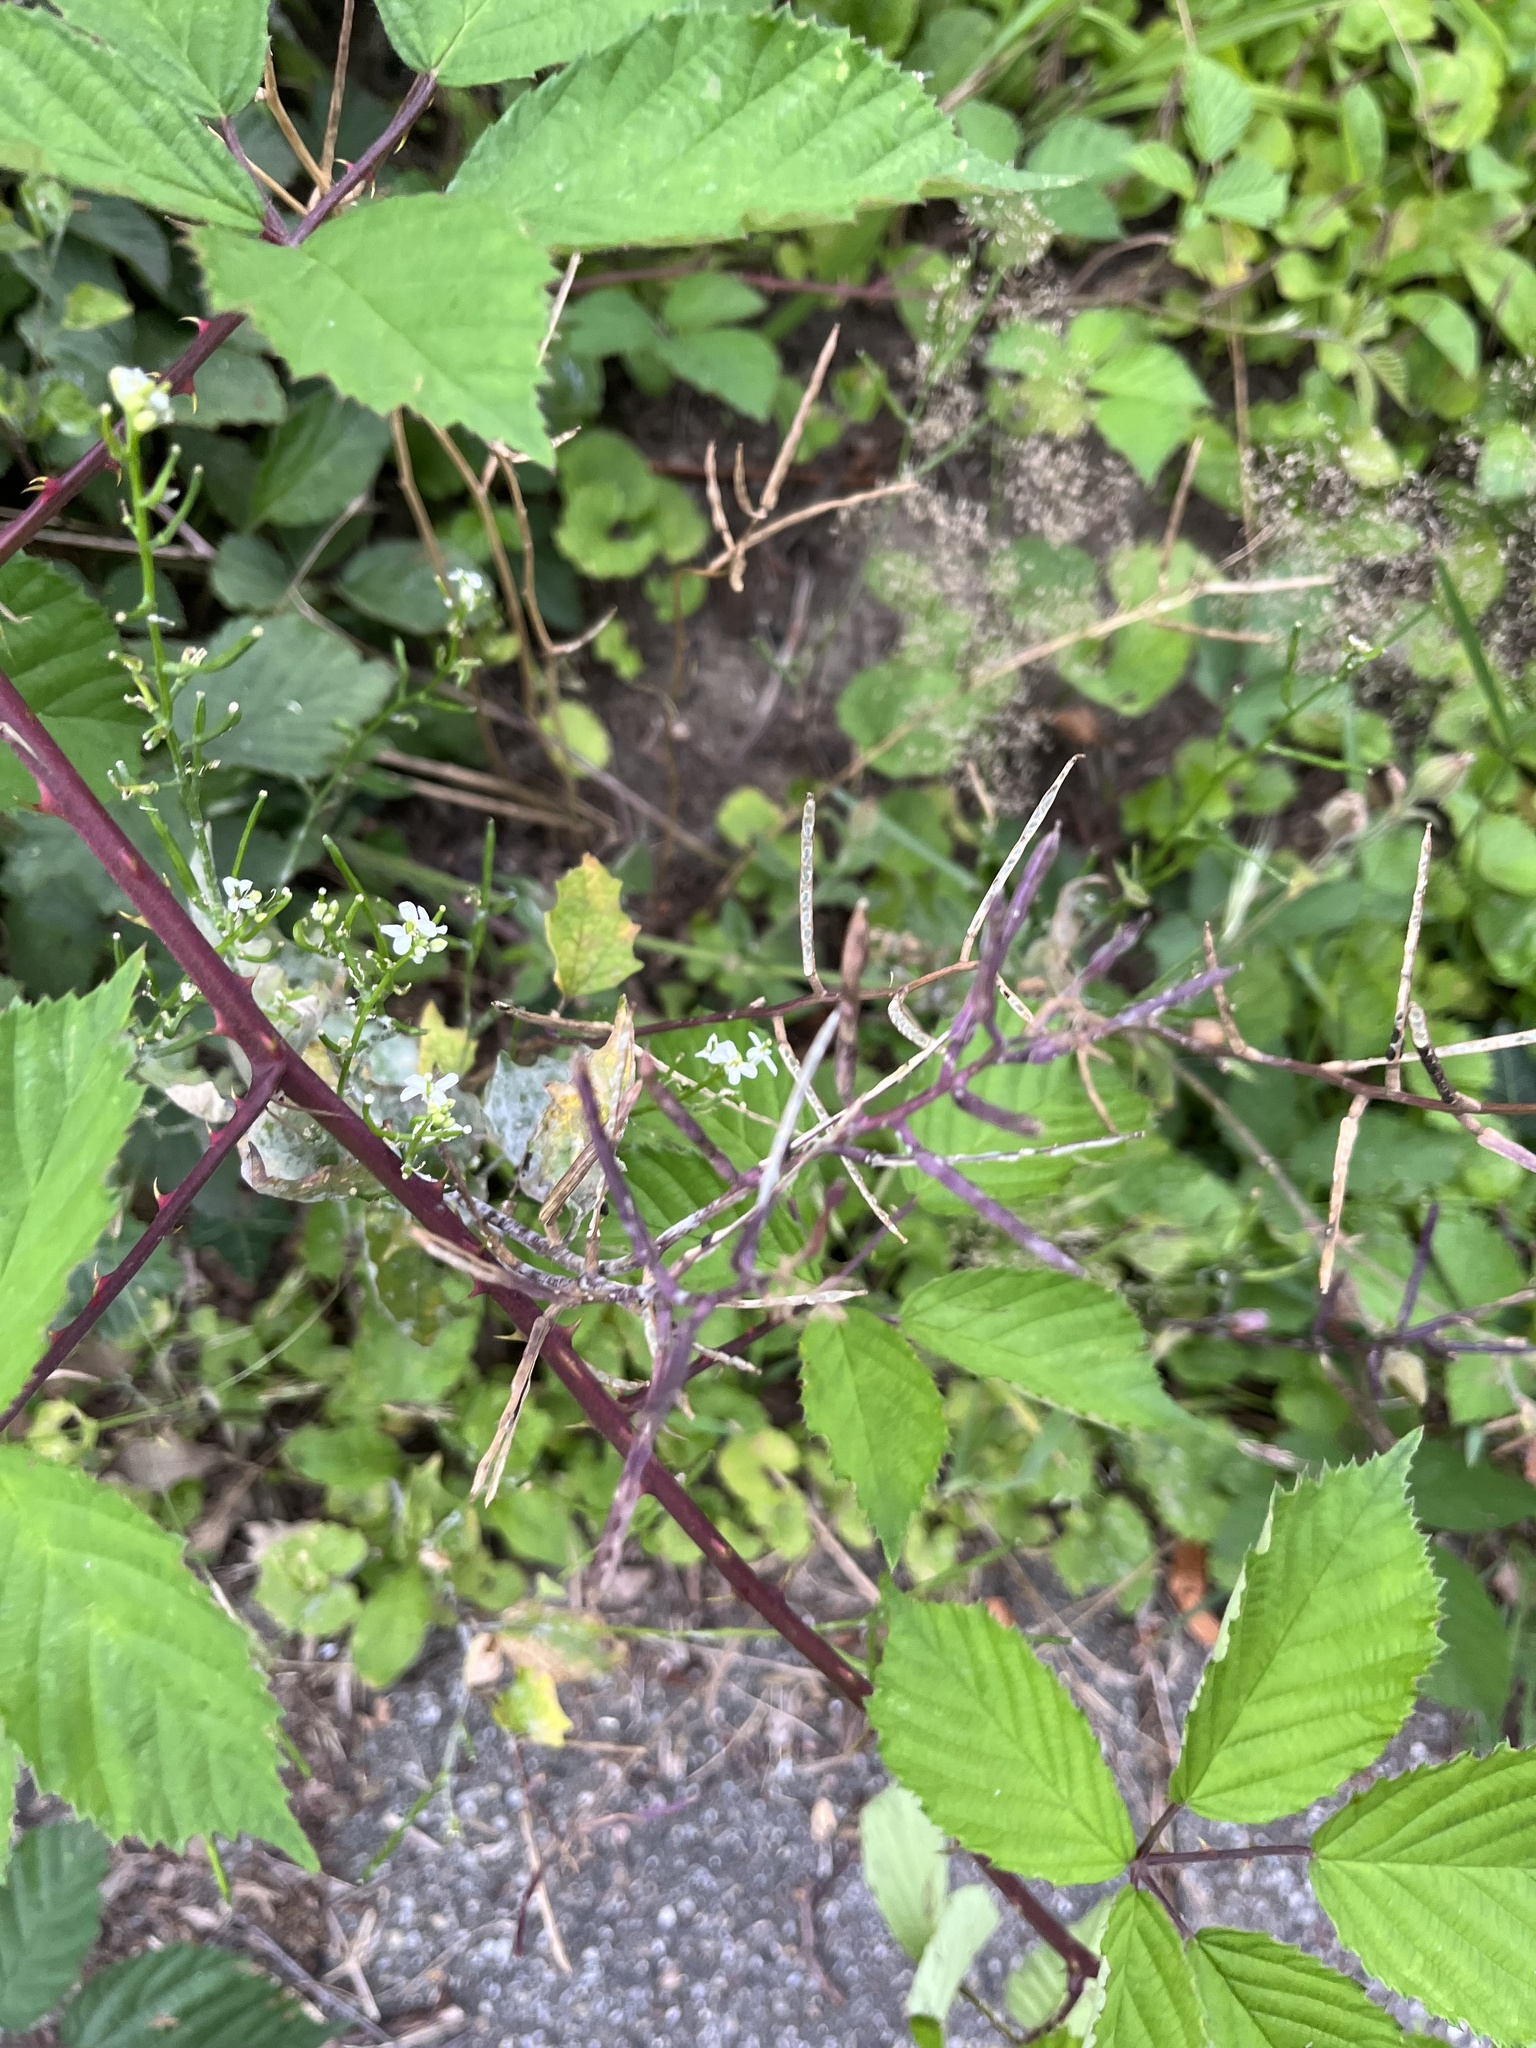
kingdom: Plantae
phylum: Tracheophyta
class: Magnoliopsida
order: Brassicales
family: Brassicaceae
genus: Alliaria
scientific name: Alliaria petiolata
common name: Garlic mustard
